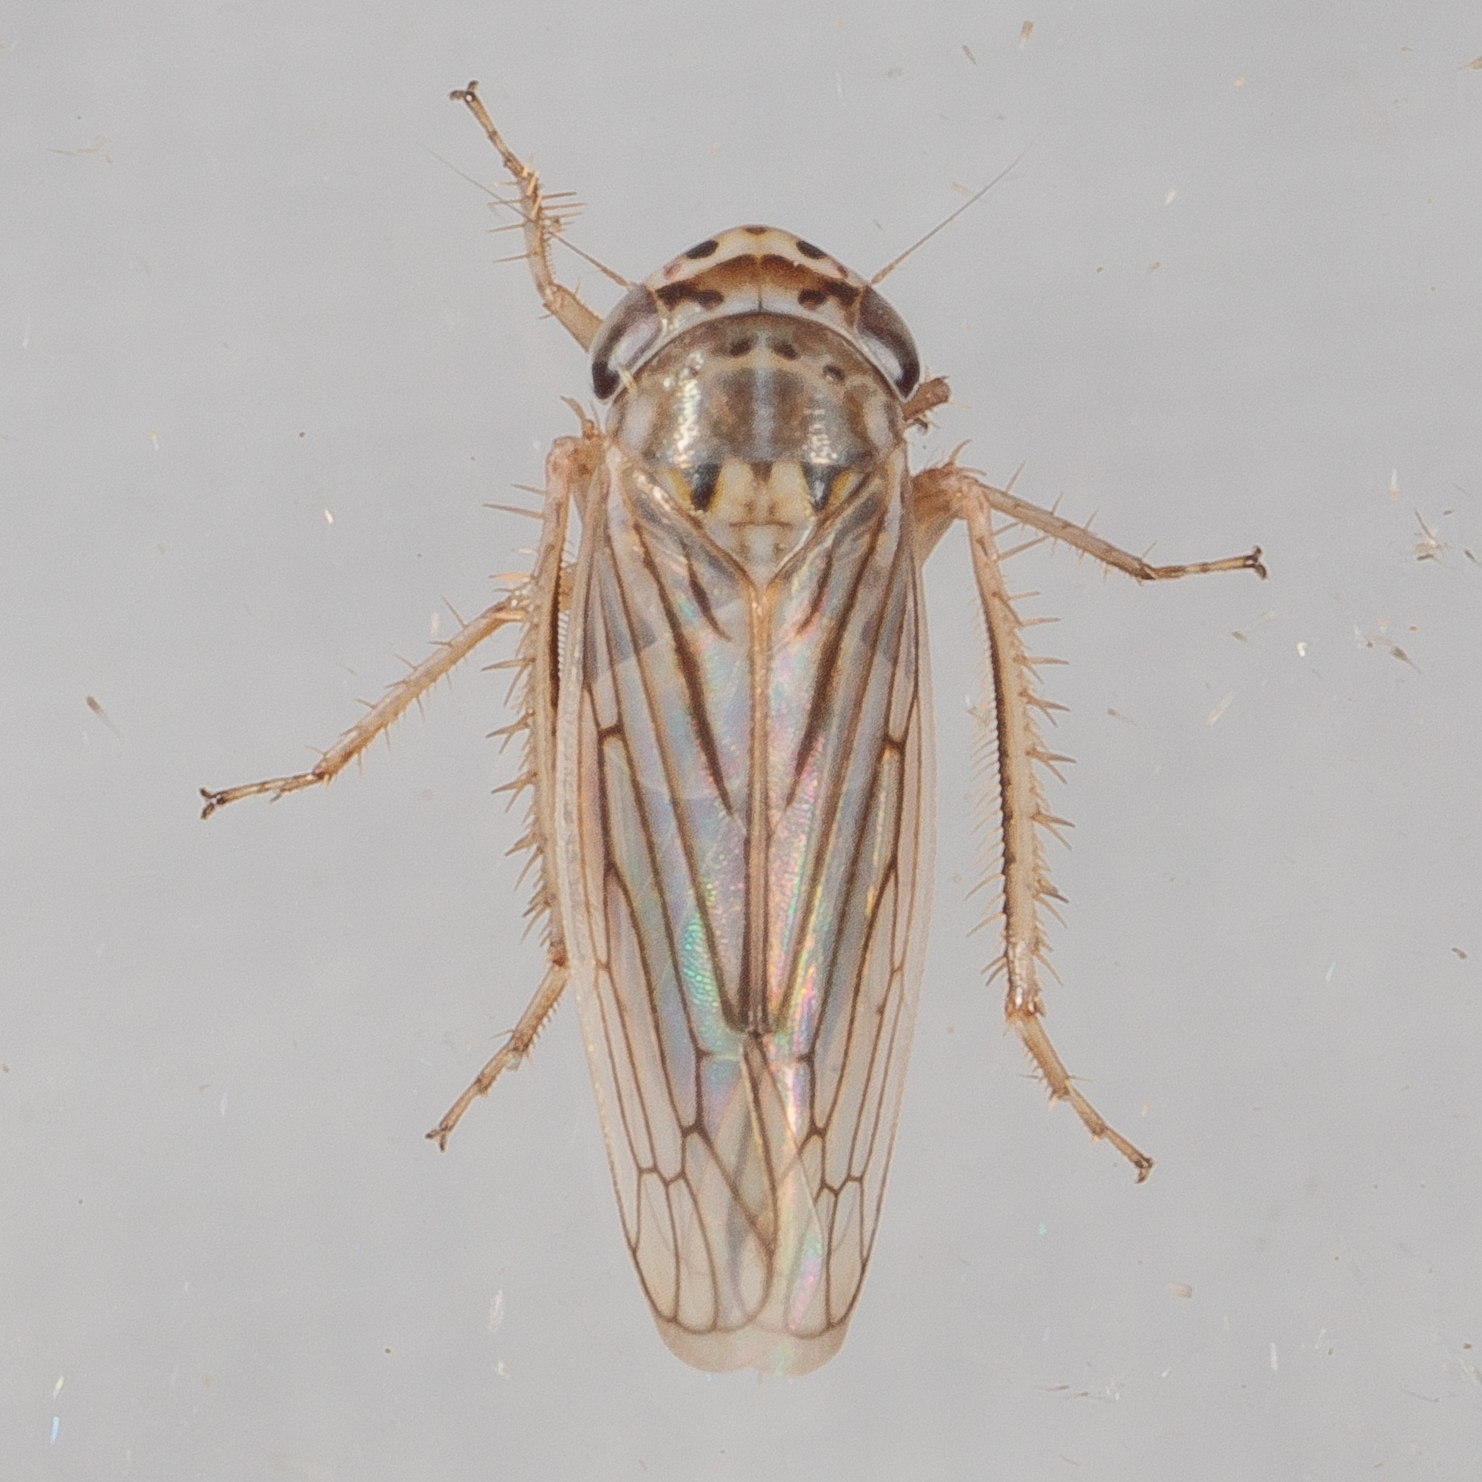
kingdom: Animalia
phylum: Arthropoda
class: Insecta
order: Hemiptera
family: Cicadellidae
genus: Exitianus
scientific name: Exitianus exitiosus
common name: Gray lawn leafhopper
